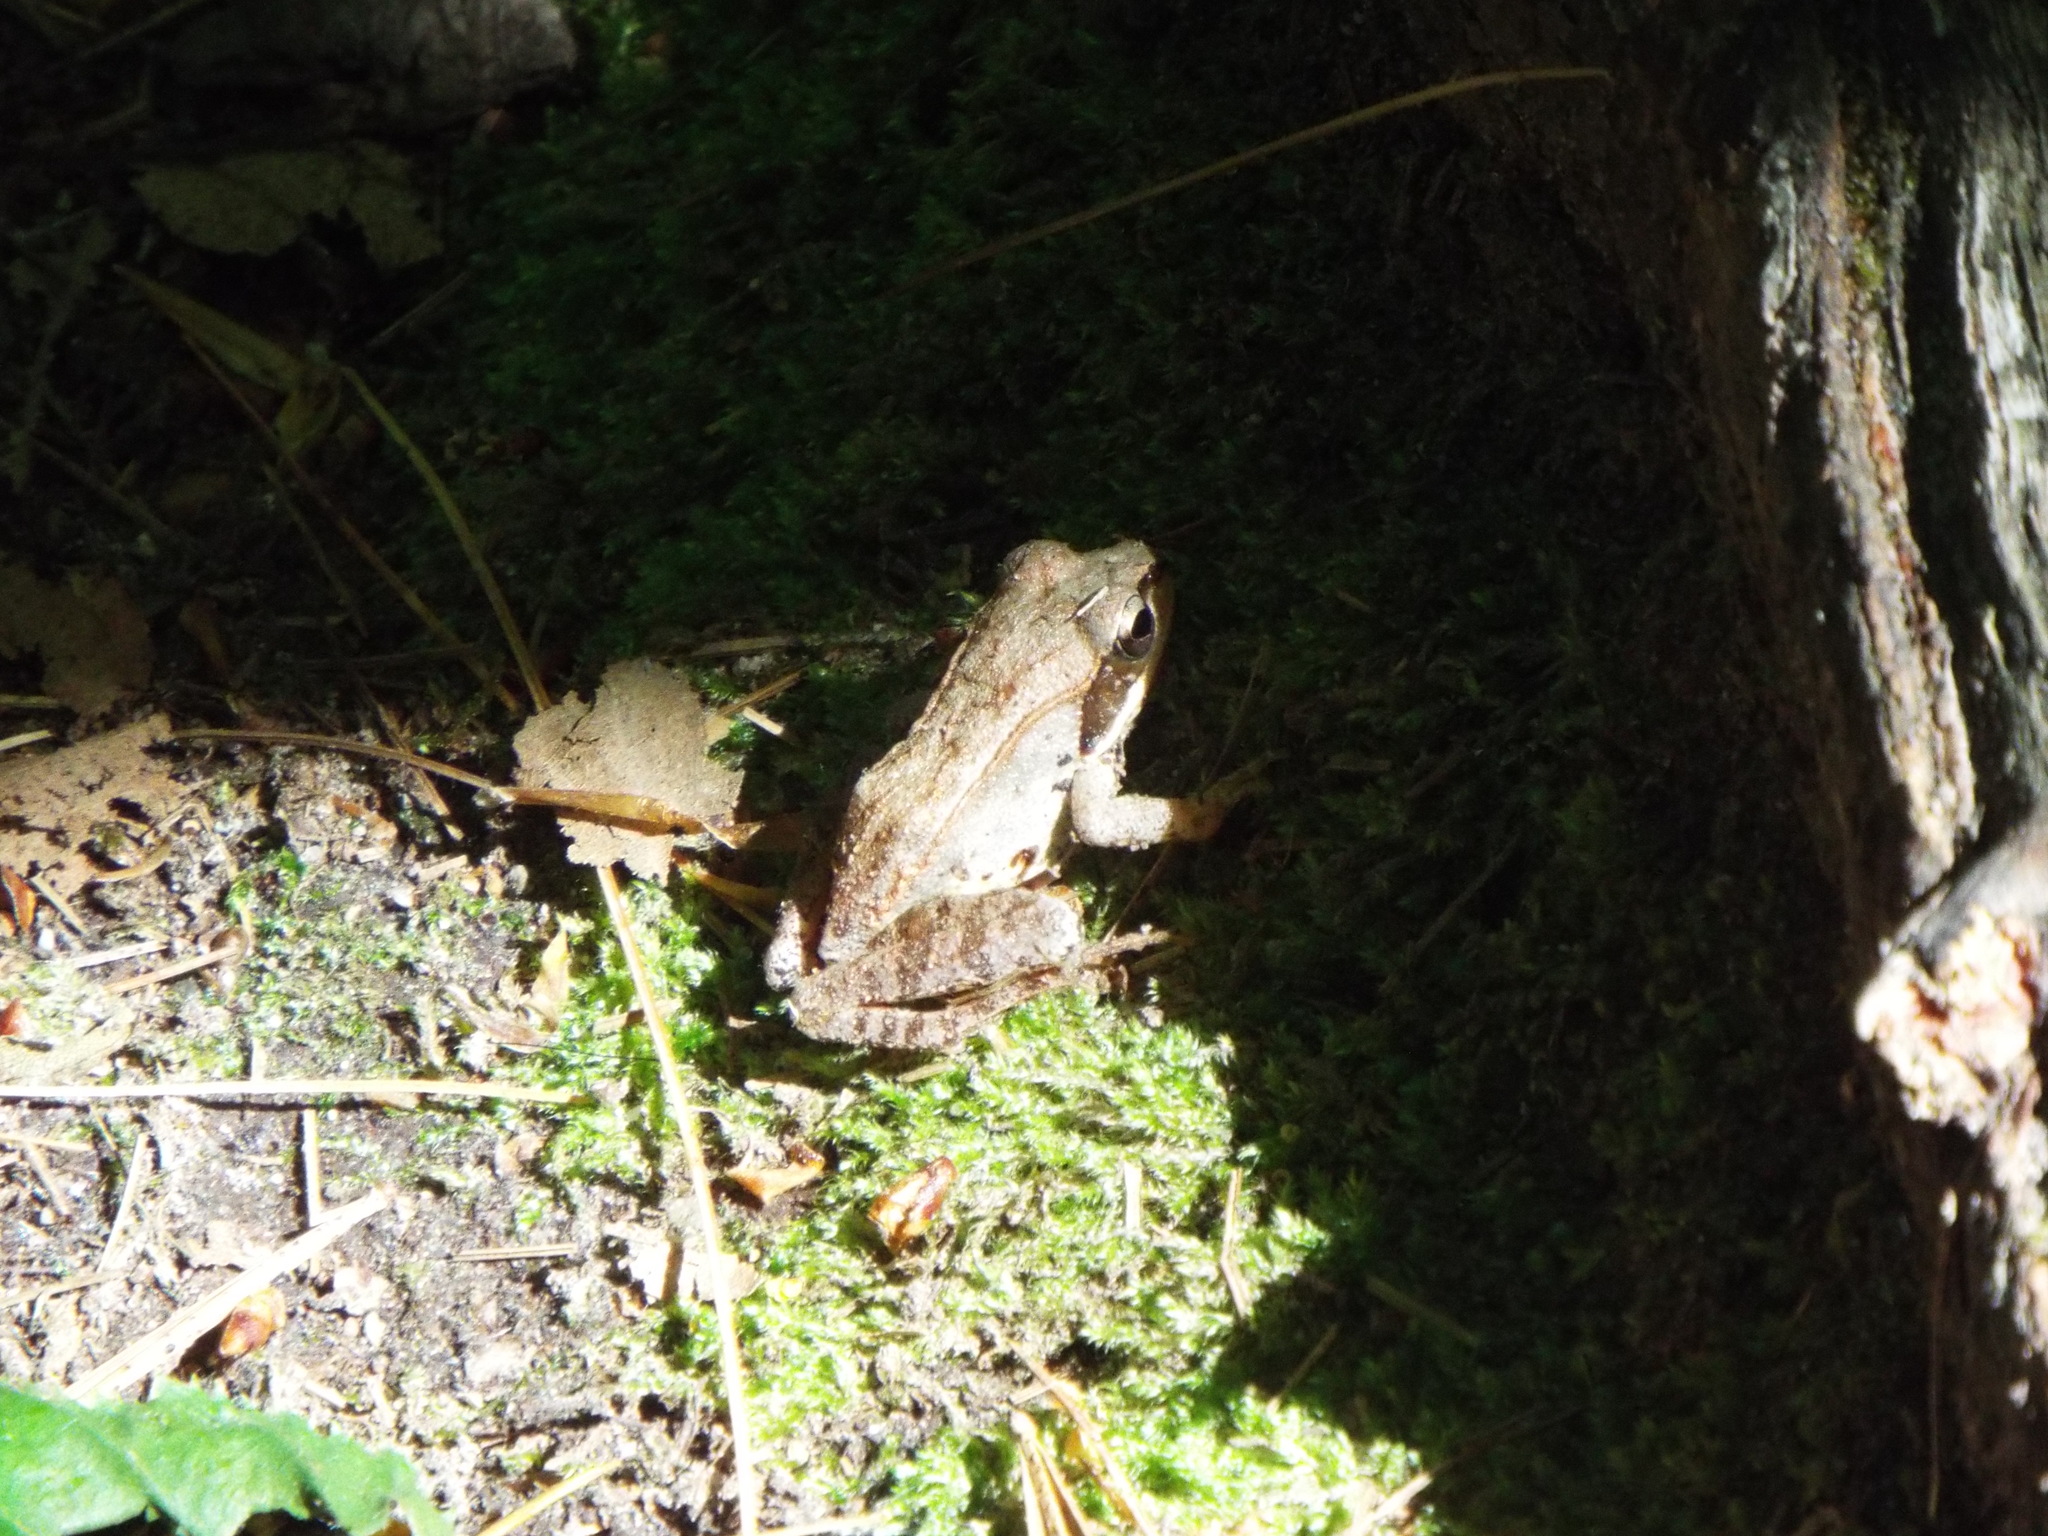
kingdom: Animalia
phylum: Chordata
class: Amphibia
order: Anura
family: Ranidae
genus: Lithobates
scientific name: Lithobates sylvaticus
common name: Wood frog
